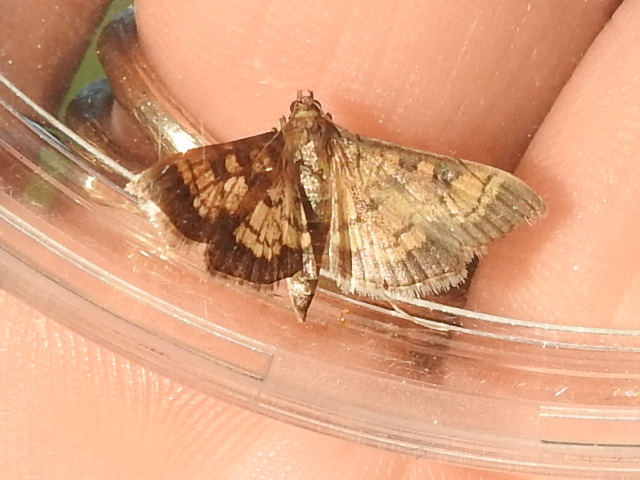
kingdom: Animalia
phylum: Arthropoda
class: Insecta
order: Lepidoptera
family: Crambidae
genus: Epipagis
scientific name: Epipagis adipaloides
